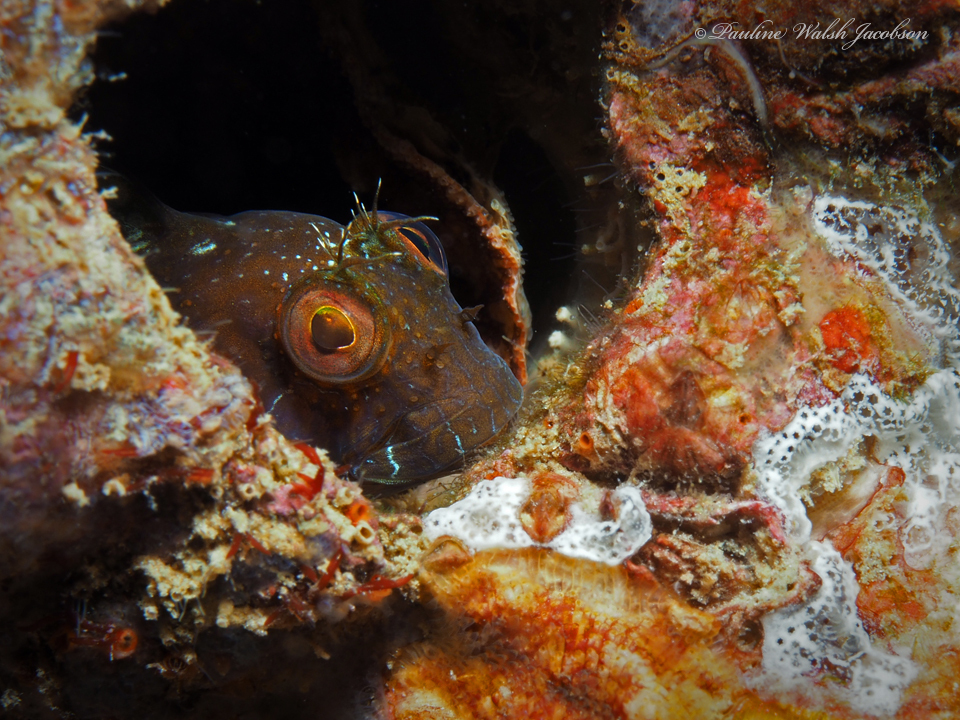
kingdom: Animalia
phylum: Chordata
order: Perciformes
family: Blenniidae
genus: Parablennius
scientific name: Parablennius marmoreus
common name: Seaweed blenny
